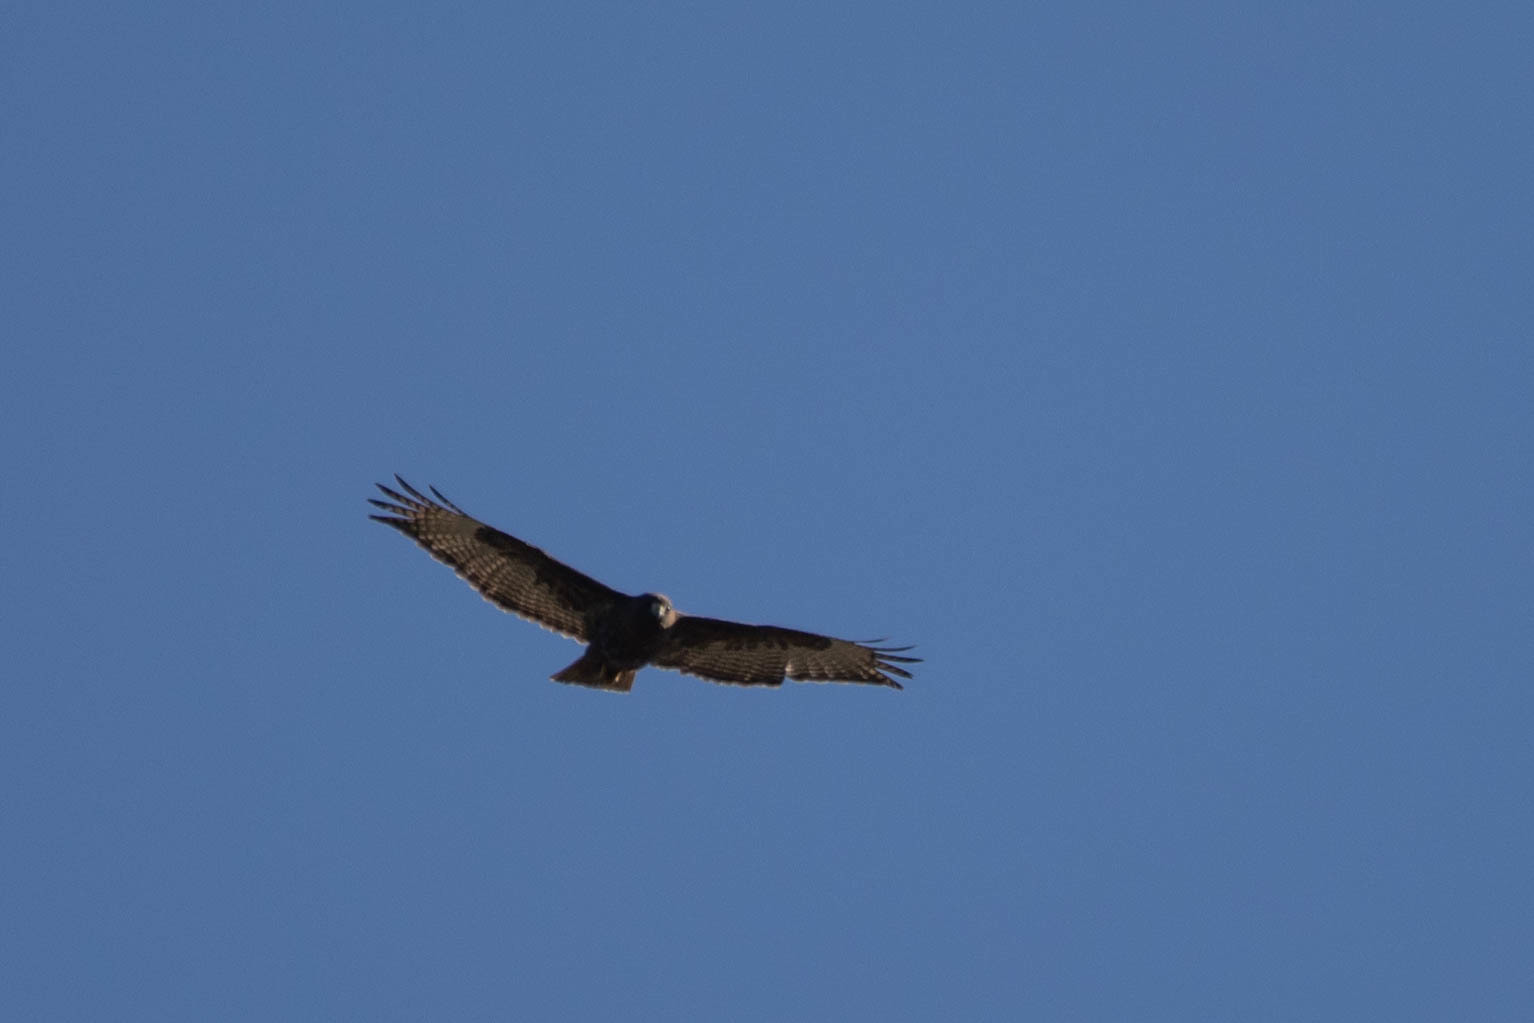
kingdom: Animalia
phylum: Chordata
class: Aves
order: Accipitriformes
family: Accipitridae
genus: Buteo
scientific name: Buteo jamaicensis
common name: Red-tailed hawk
